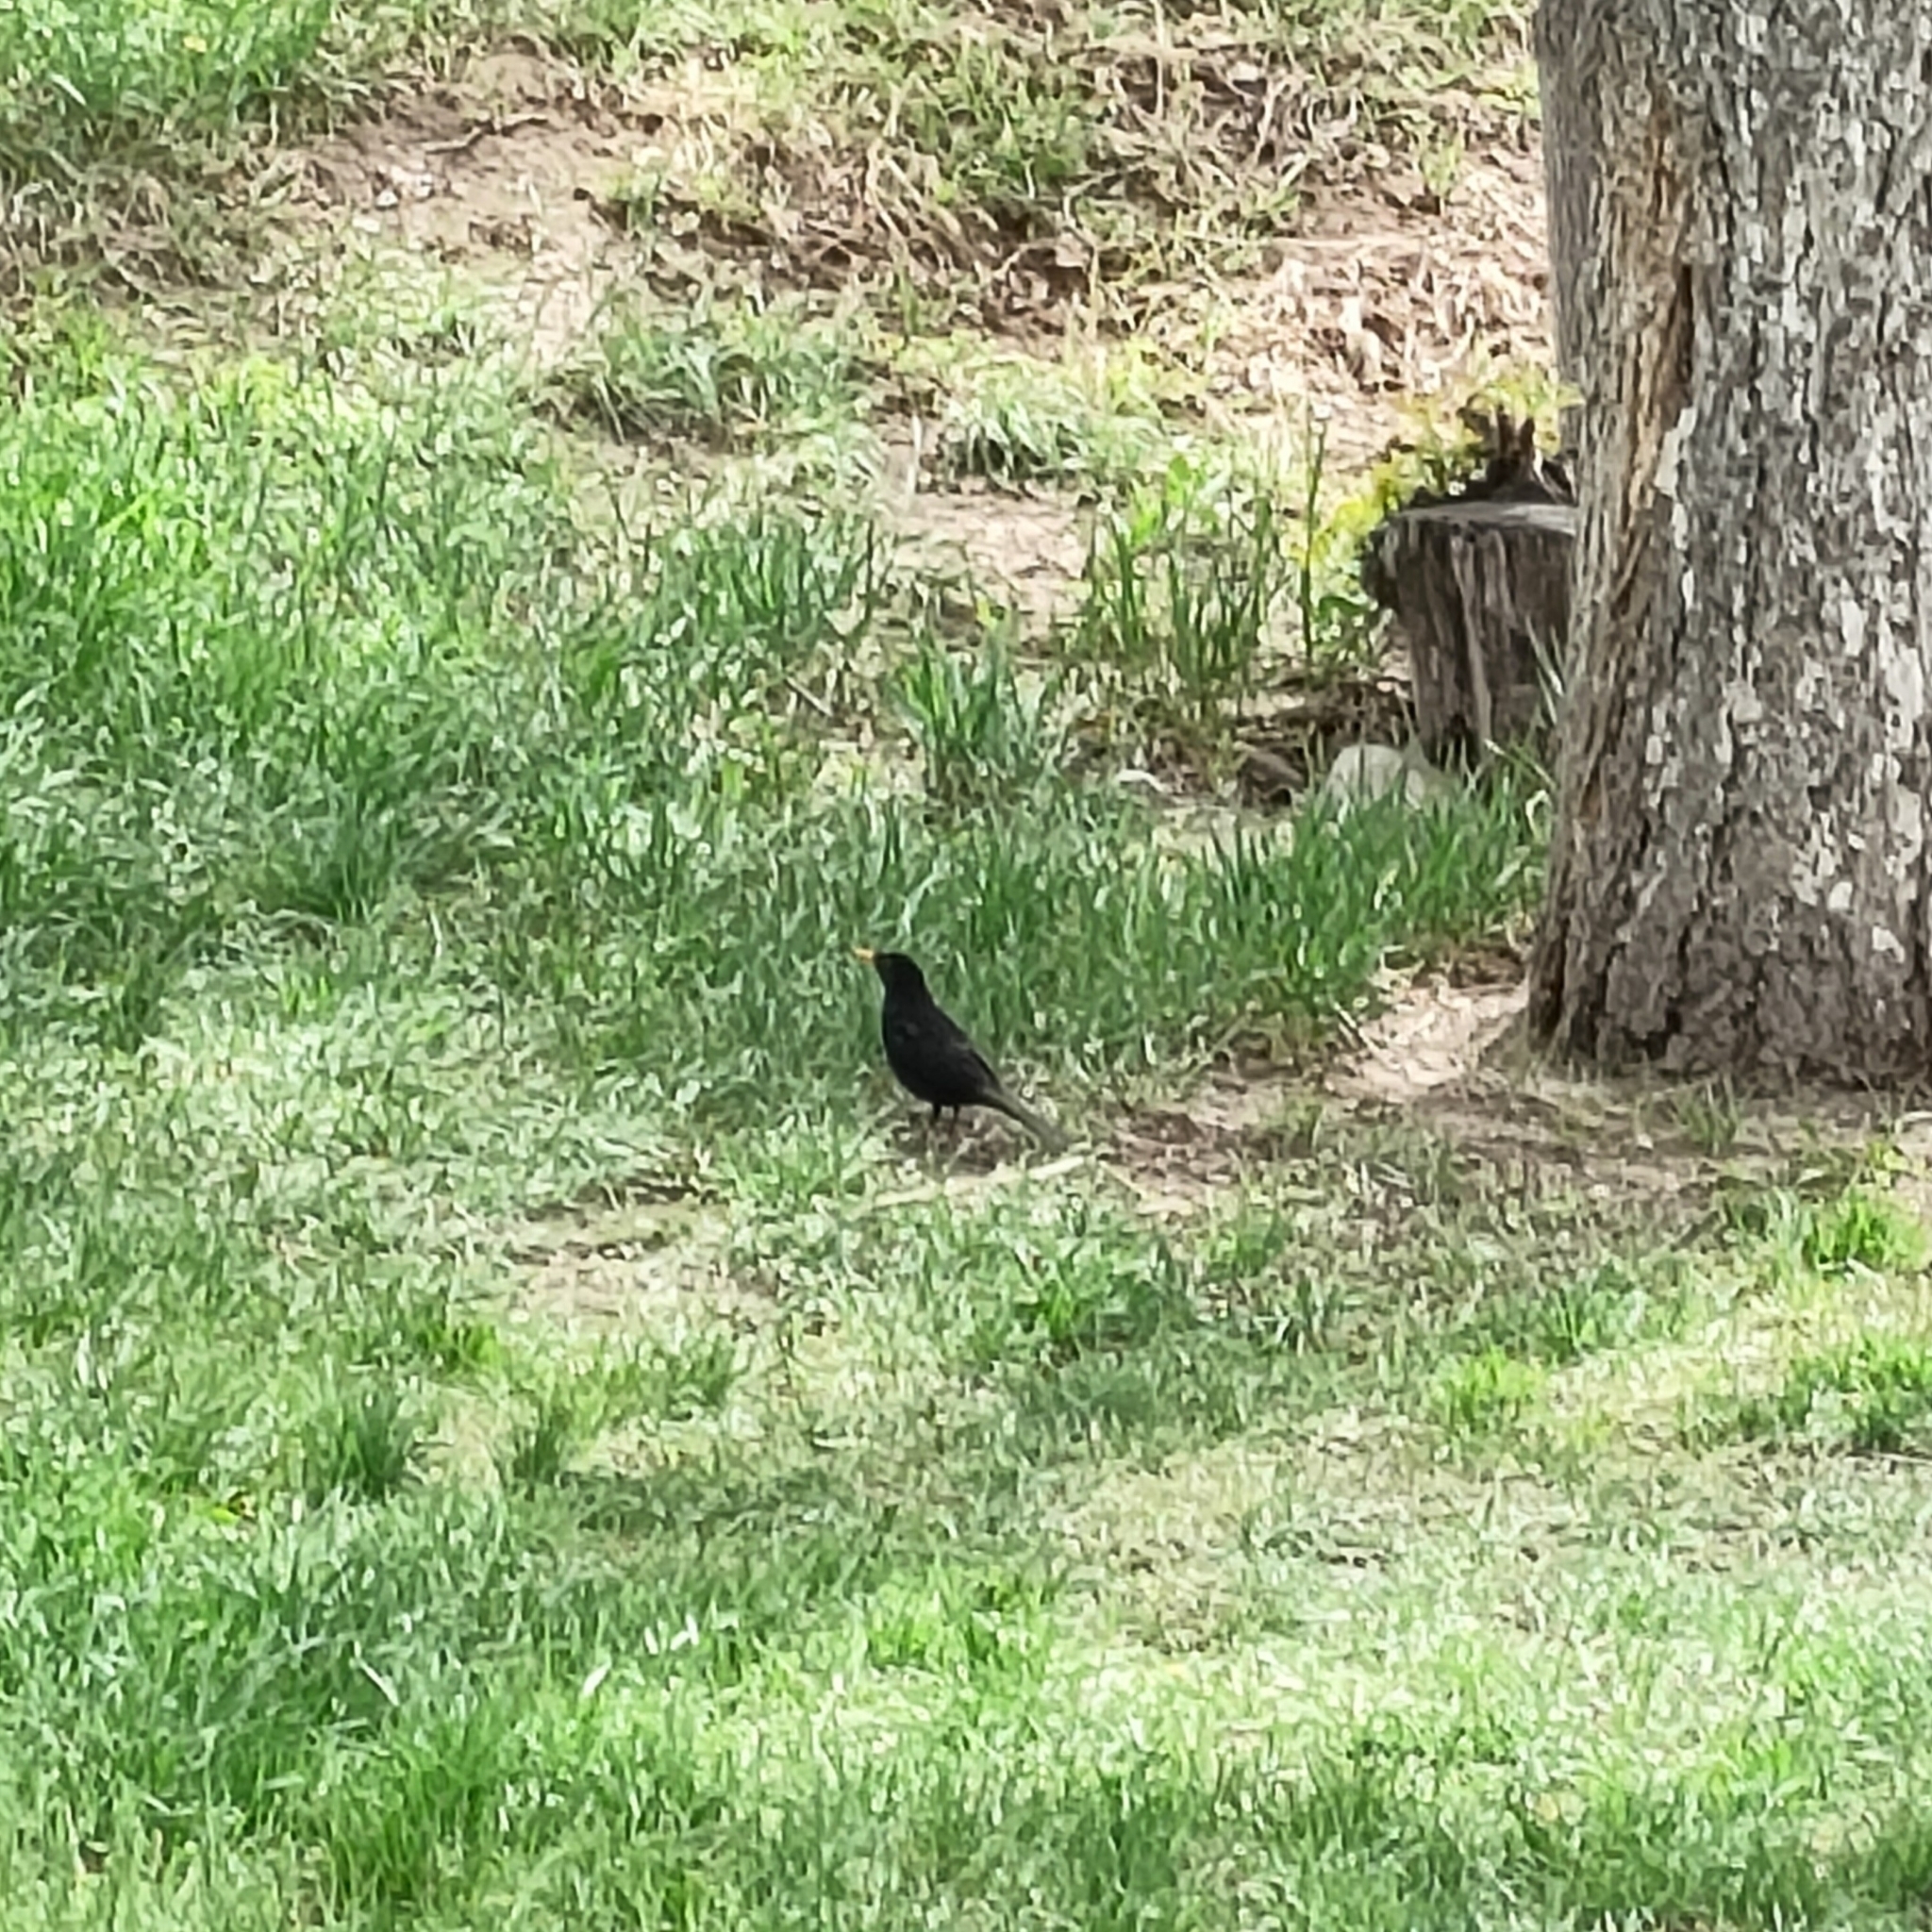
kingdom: Animalia
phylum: Chordata
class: Aves
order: Passeriformes
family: Turdidae
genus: Turdus
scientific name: Turdus merula
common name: Common blackbird
